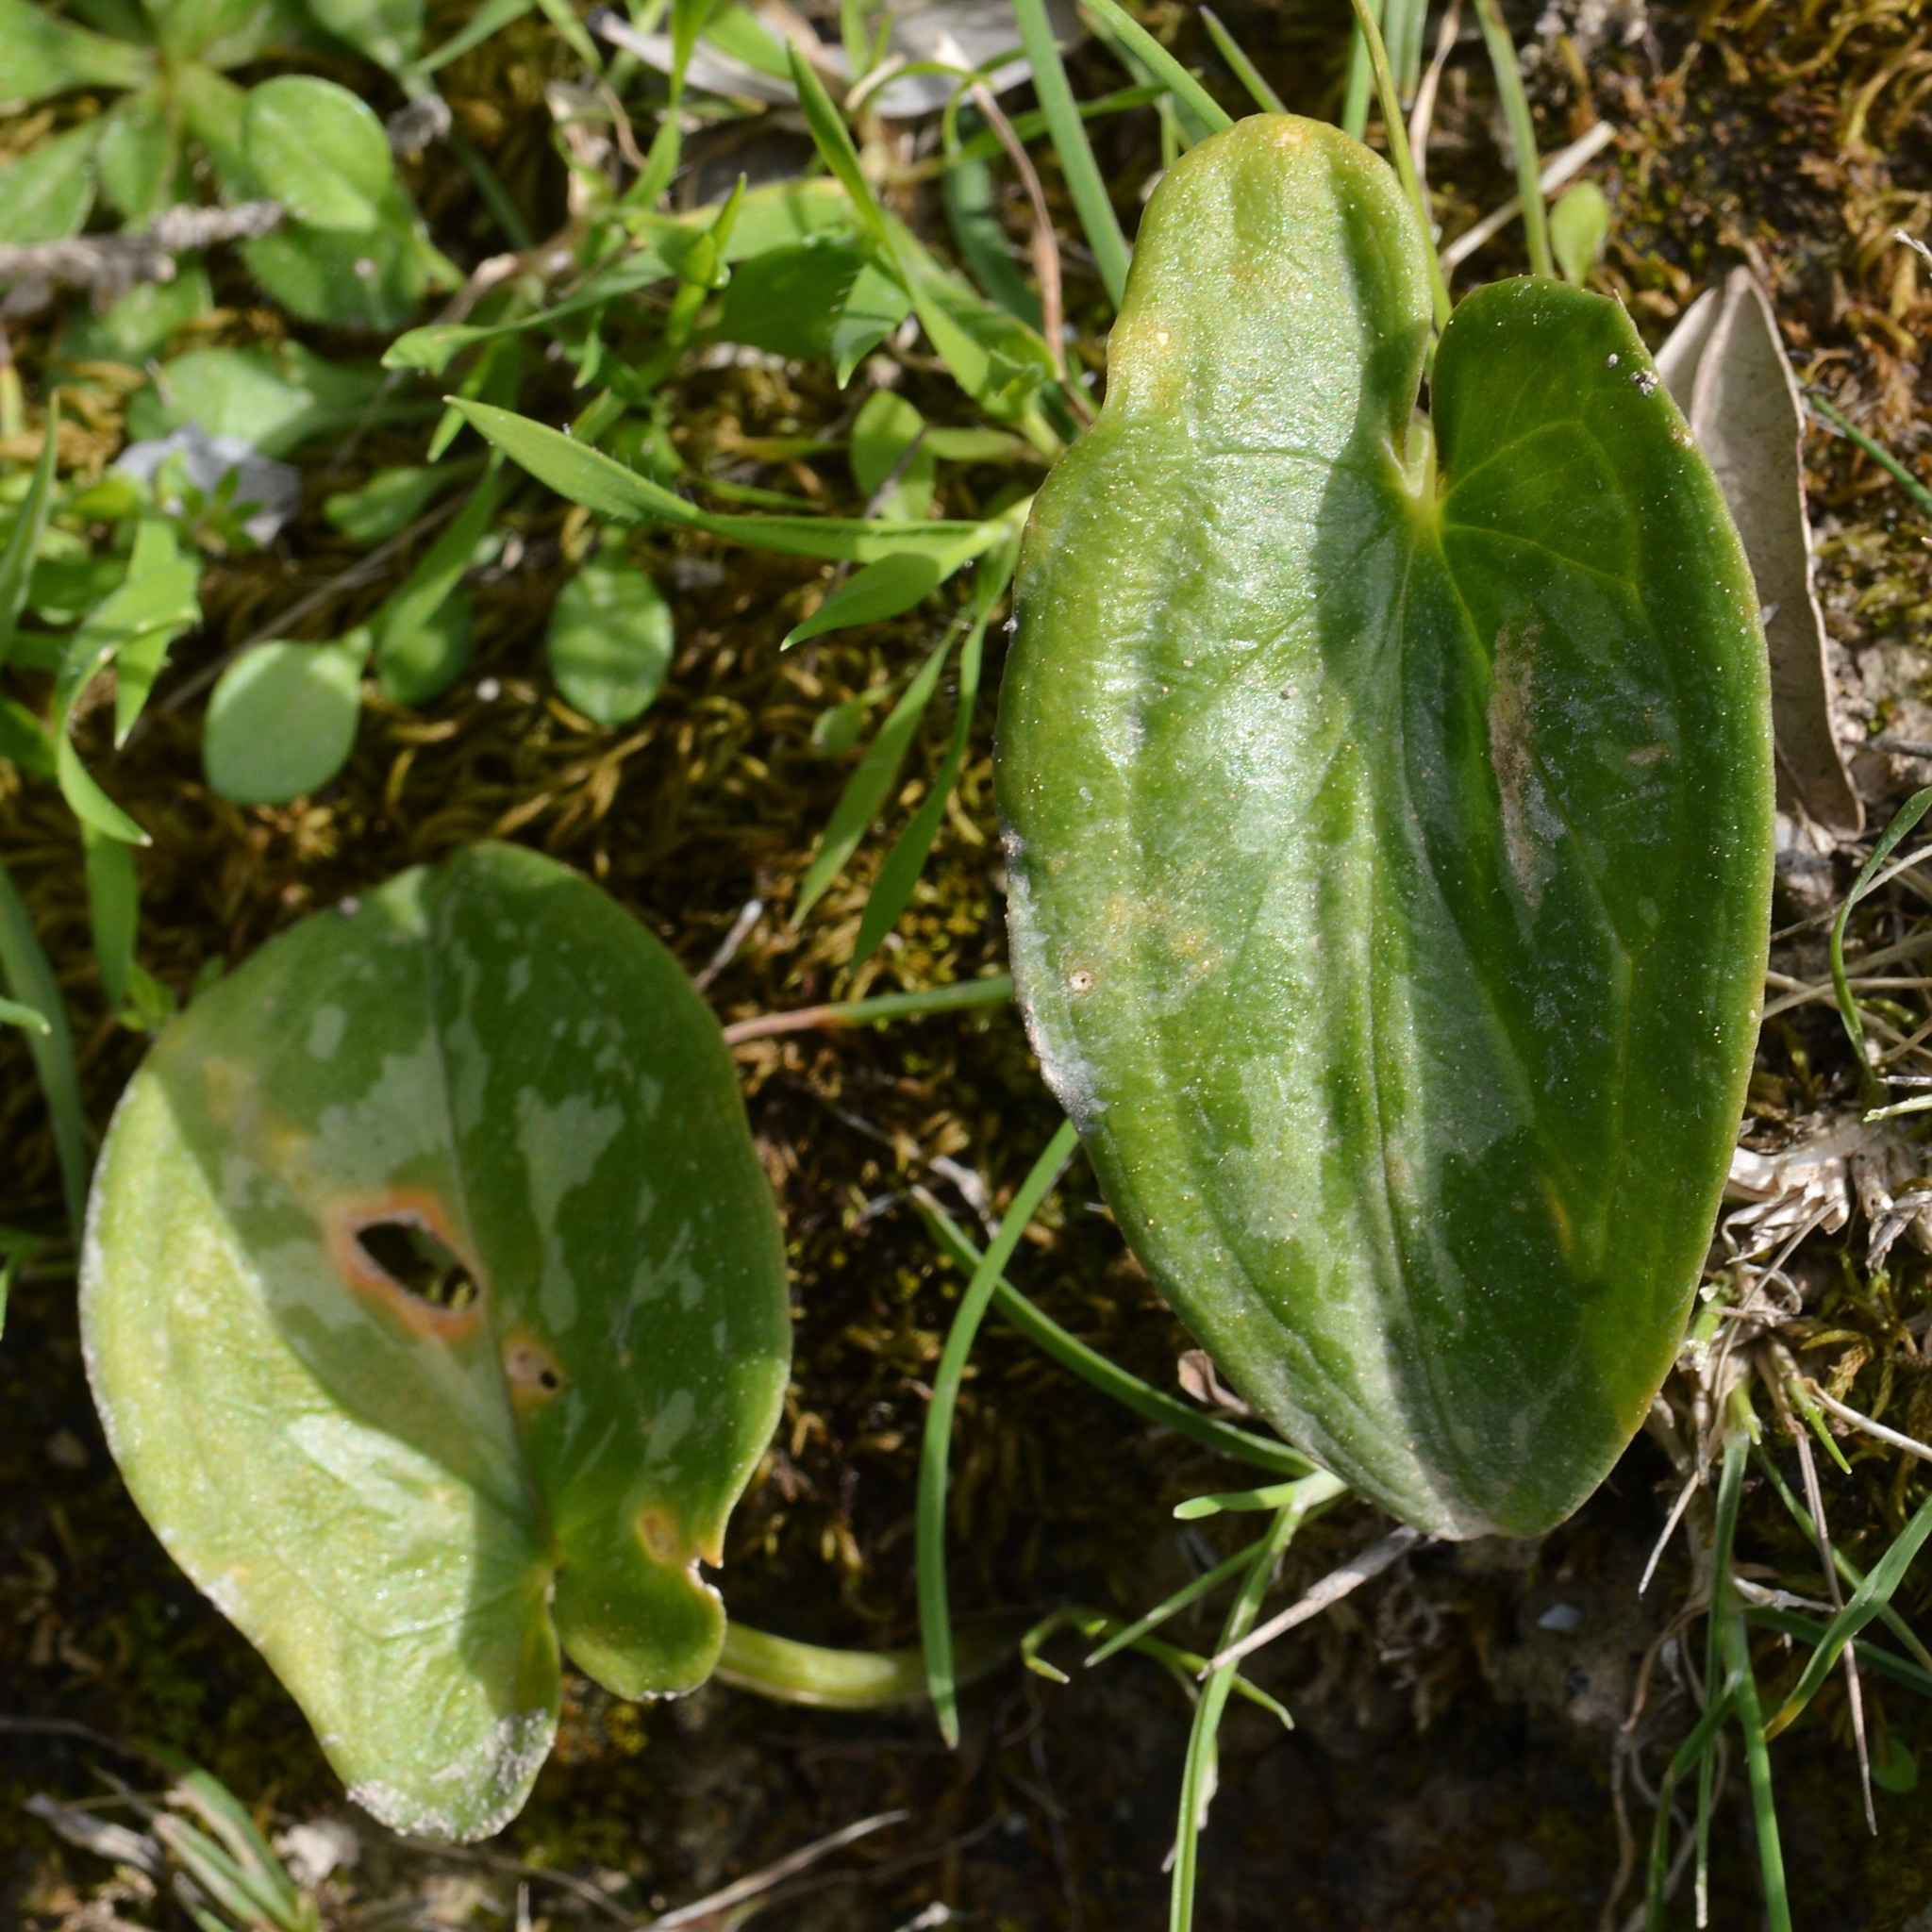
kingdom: Plantae
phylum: Tracheophyta
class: Liliopsida
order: Alismatales
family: Araceae
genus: Arisarum
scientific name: Arisarum vulgare
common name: Common arisarum
